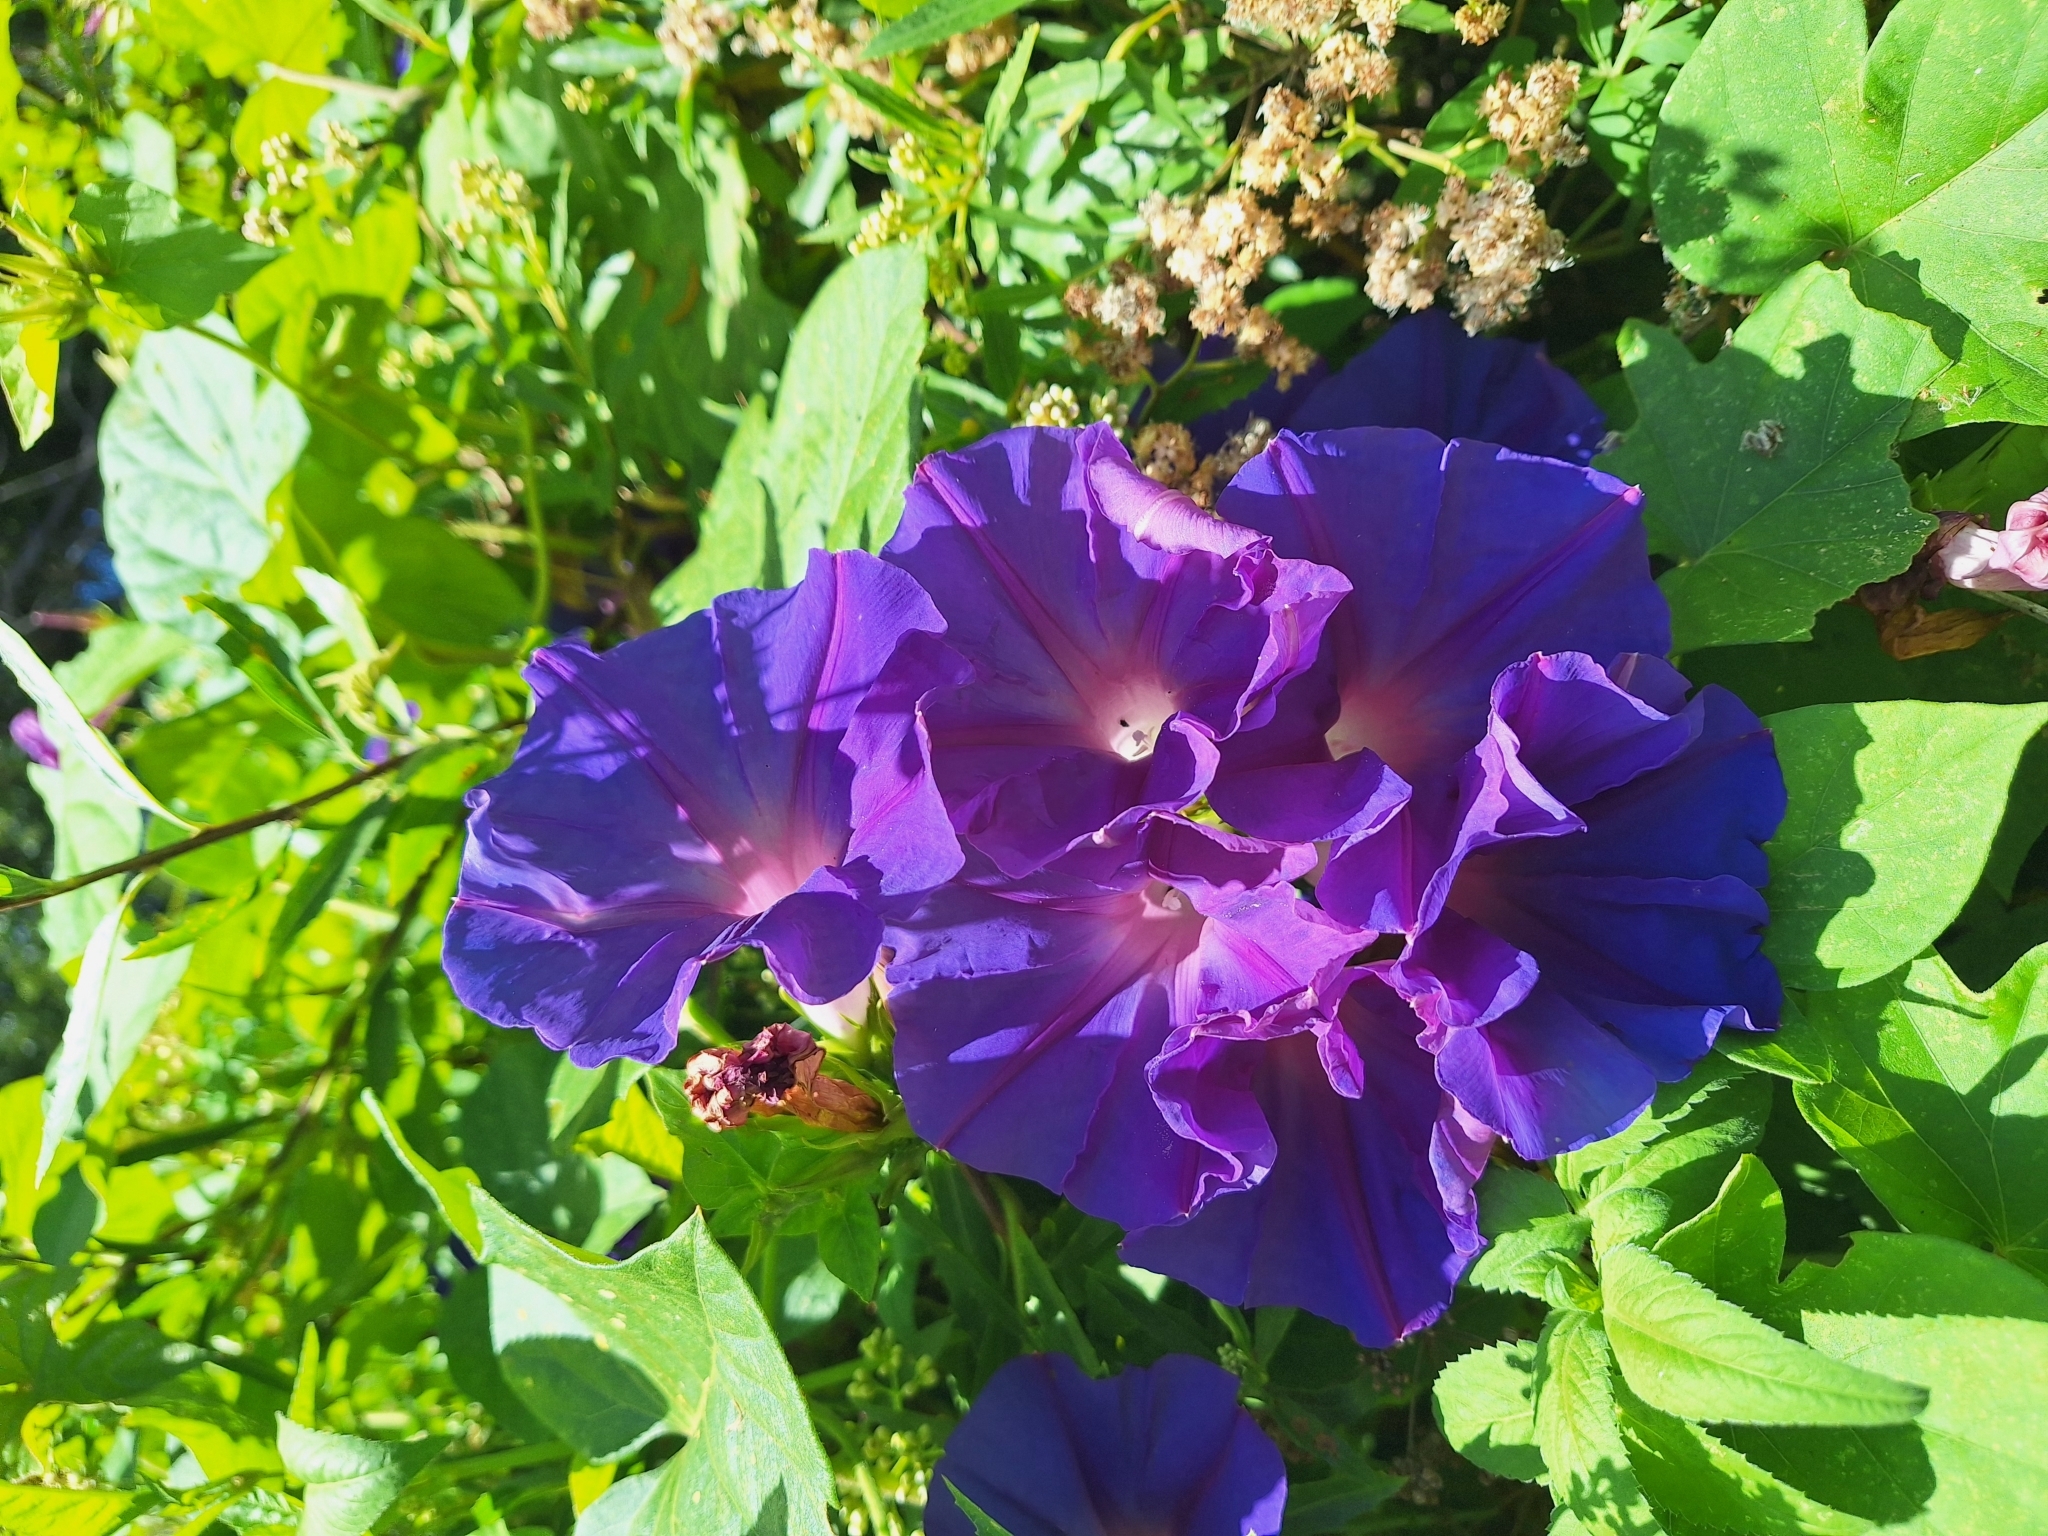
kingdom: Plantae
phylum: Tracheophyta
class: Magnoliopsida
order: Solanales
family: Convolvulaceae
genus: Ipomoea
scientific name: Ipomoea indica
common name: Blue dawnflower
